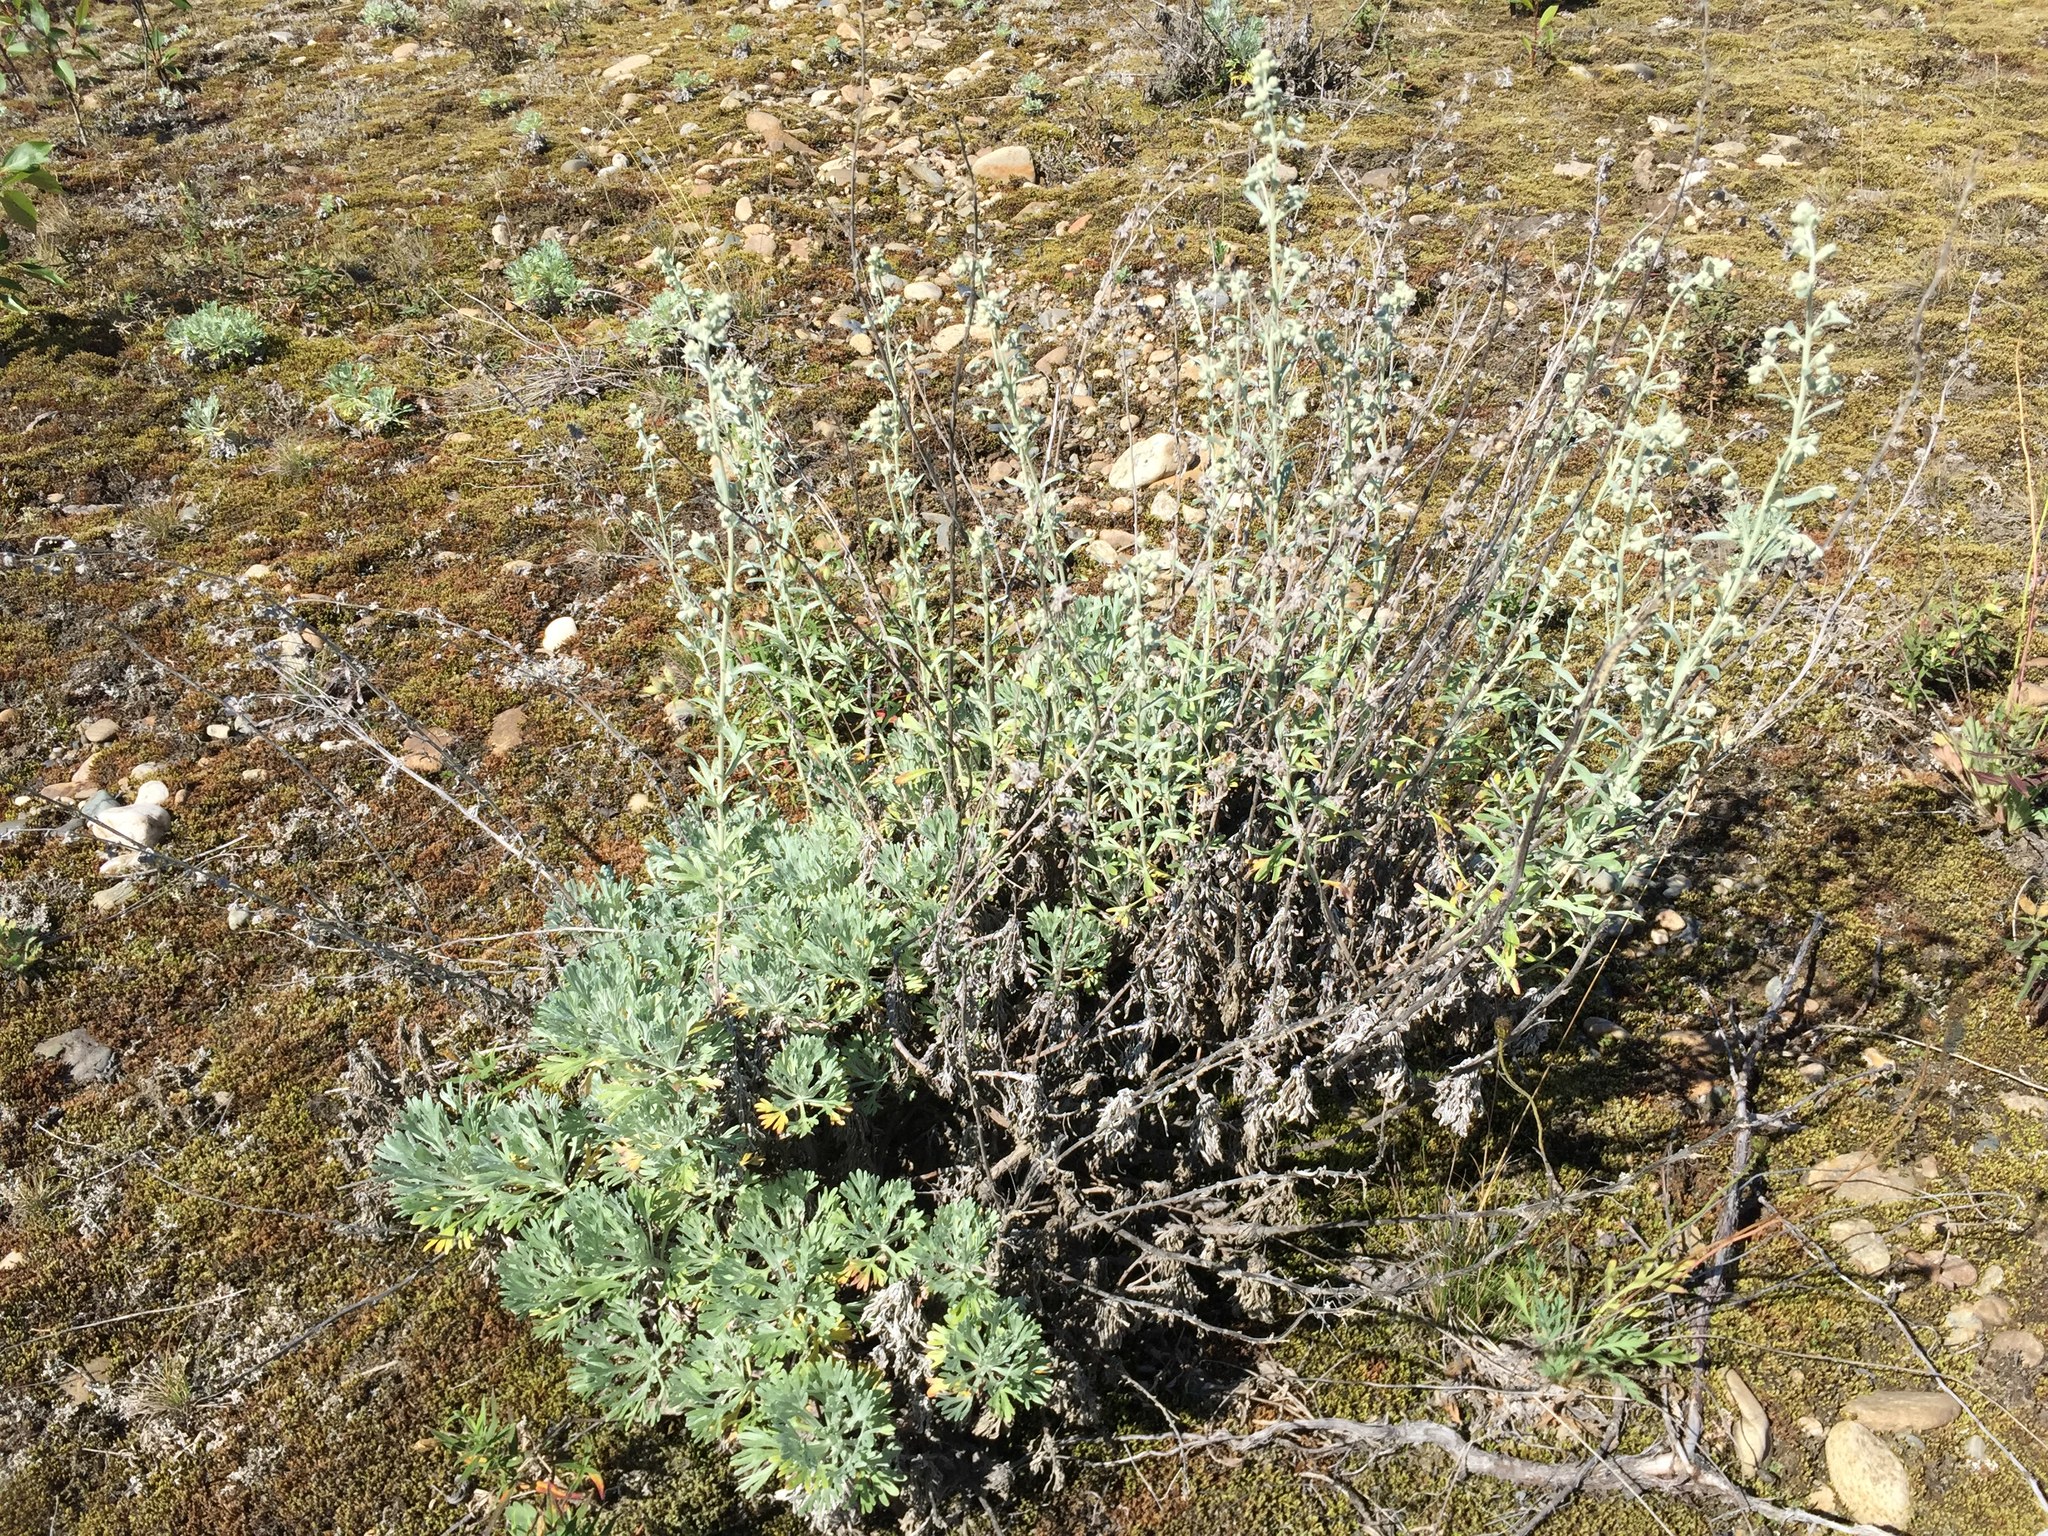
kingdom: Plantae
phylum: Tracheophyta
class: Magnoliopsida
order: Asterales
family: Asteraceae
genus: Artemisia
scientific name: Artemisia kruhsiana
